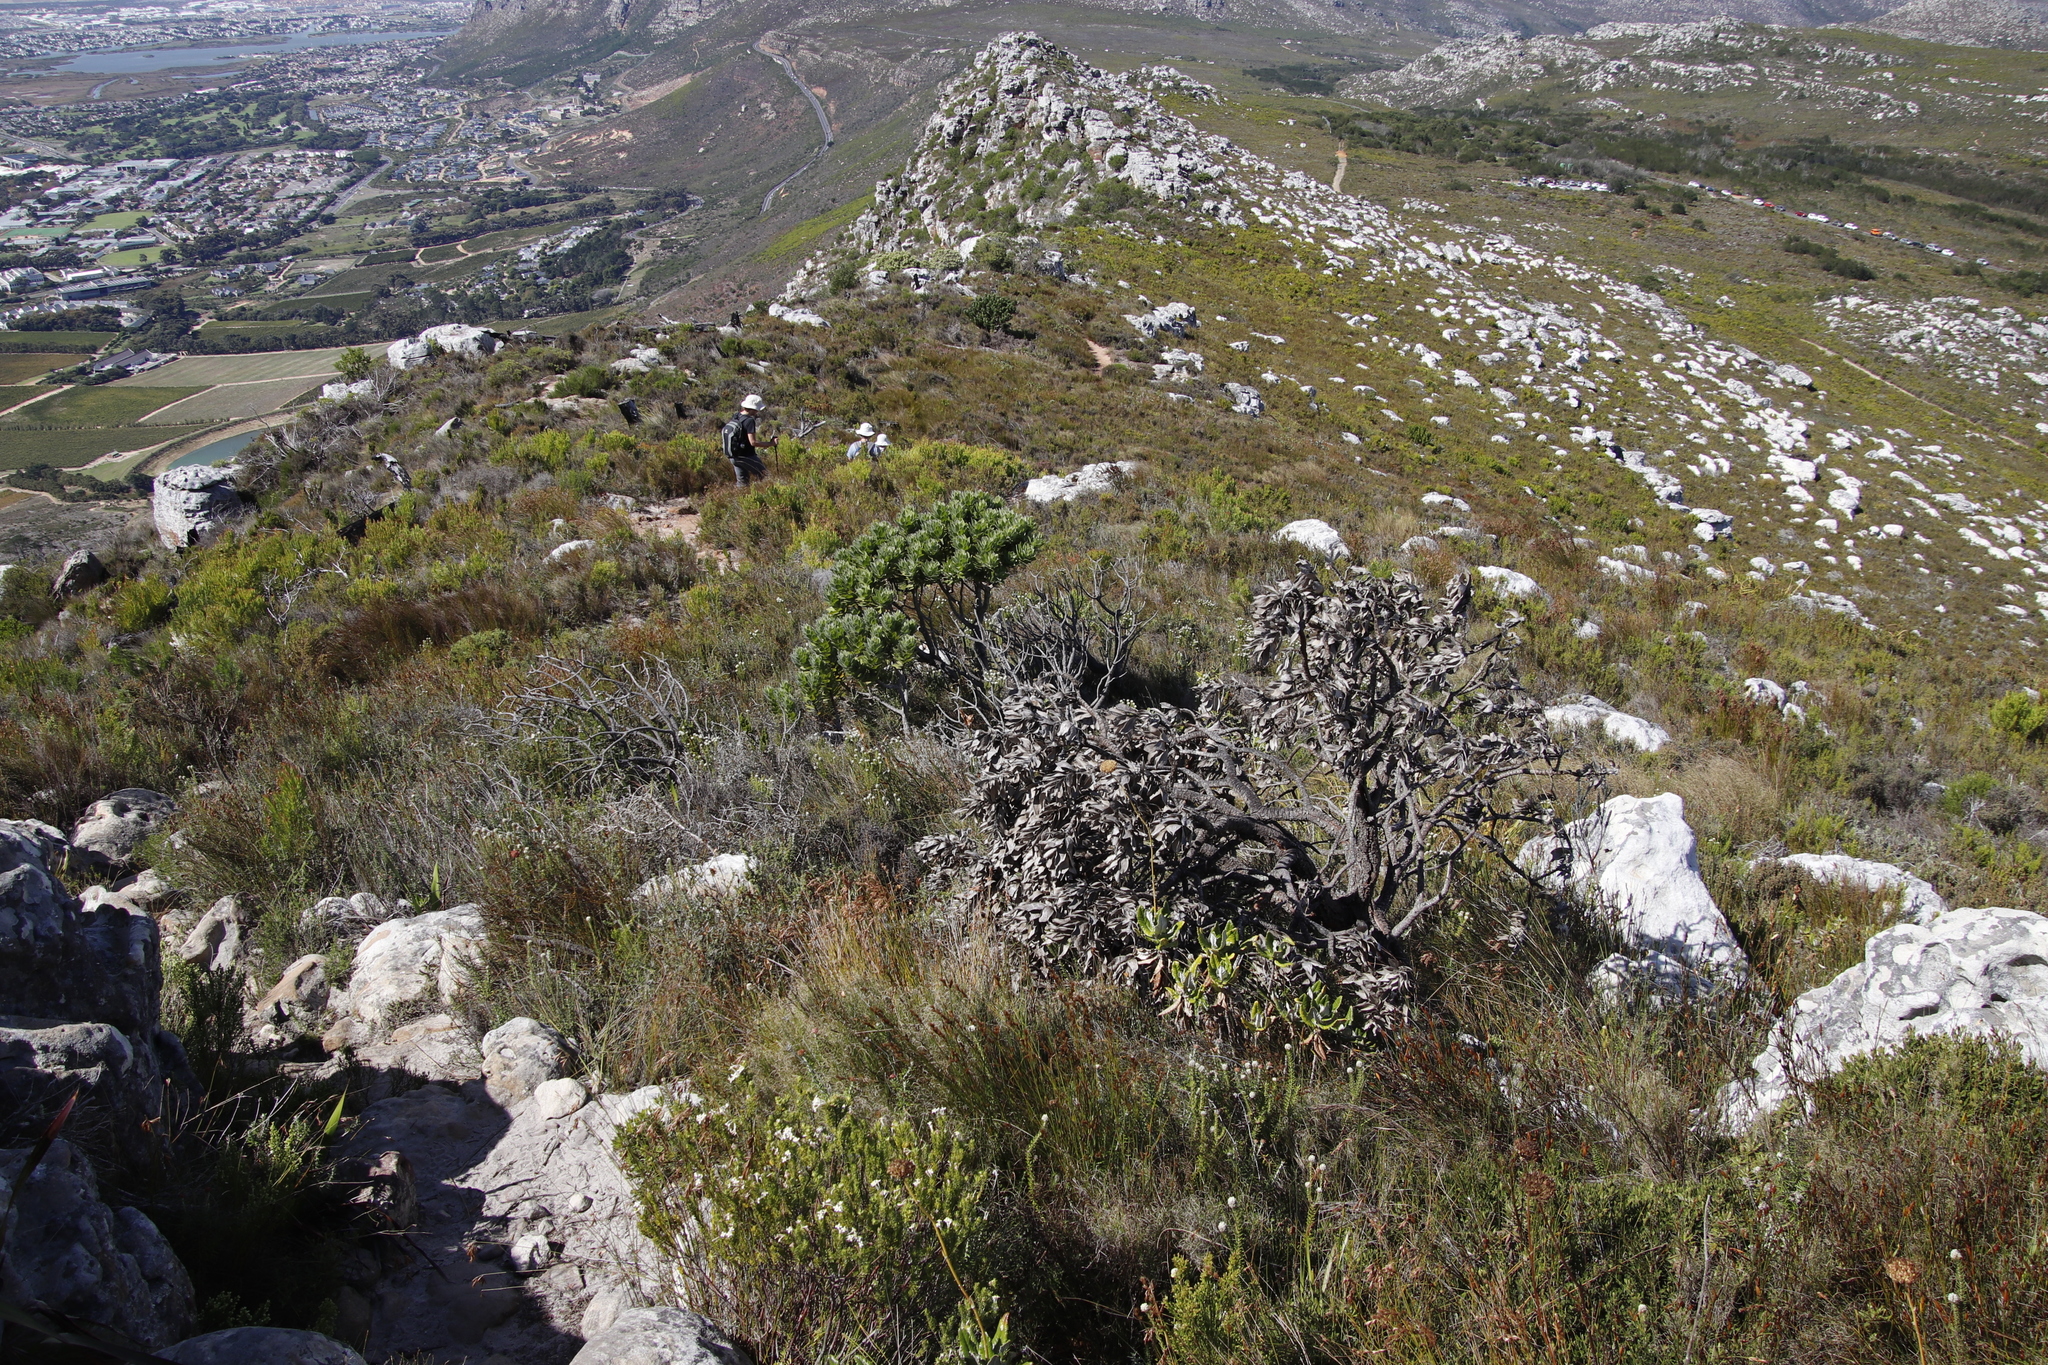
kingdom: Plantae
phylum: Tracheophyta
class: Magnoliopsida
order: Proteales
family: Proteaceae
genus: Leucospermum
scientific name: Leucospermum conocarpodendron
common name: Tree pincushion
